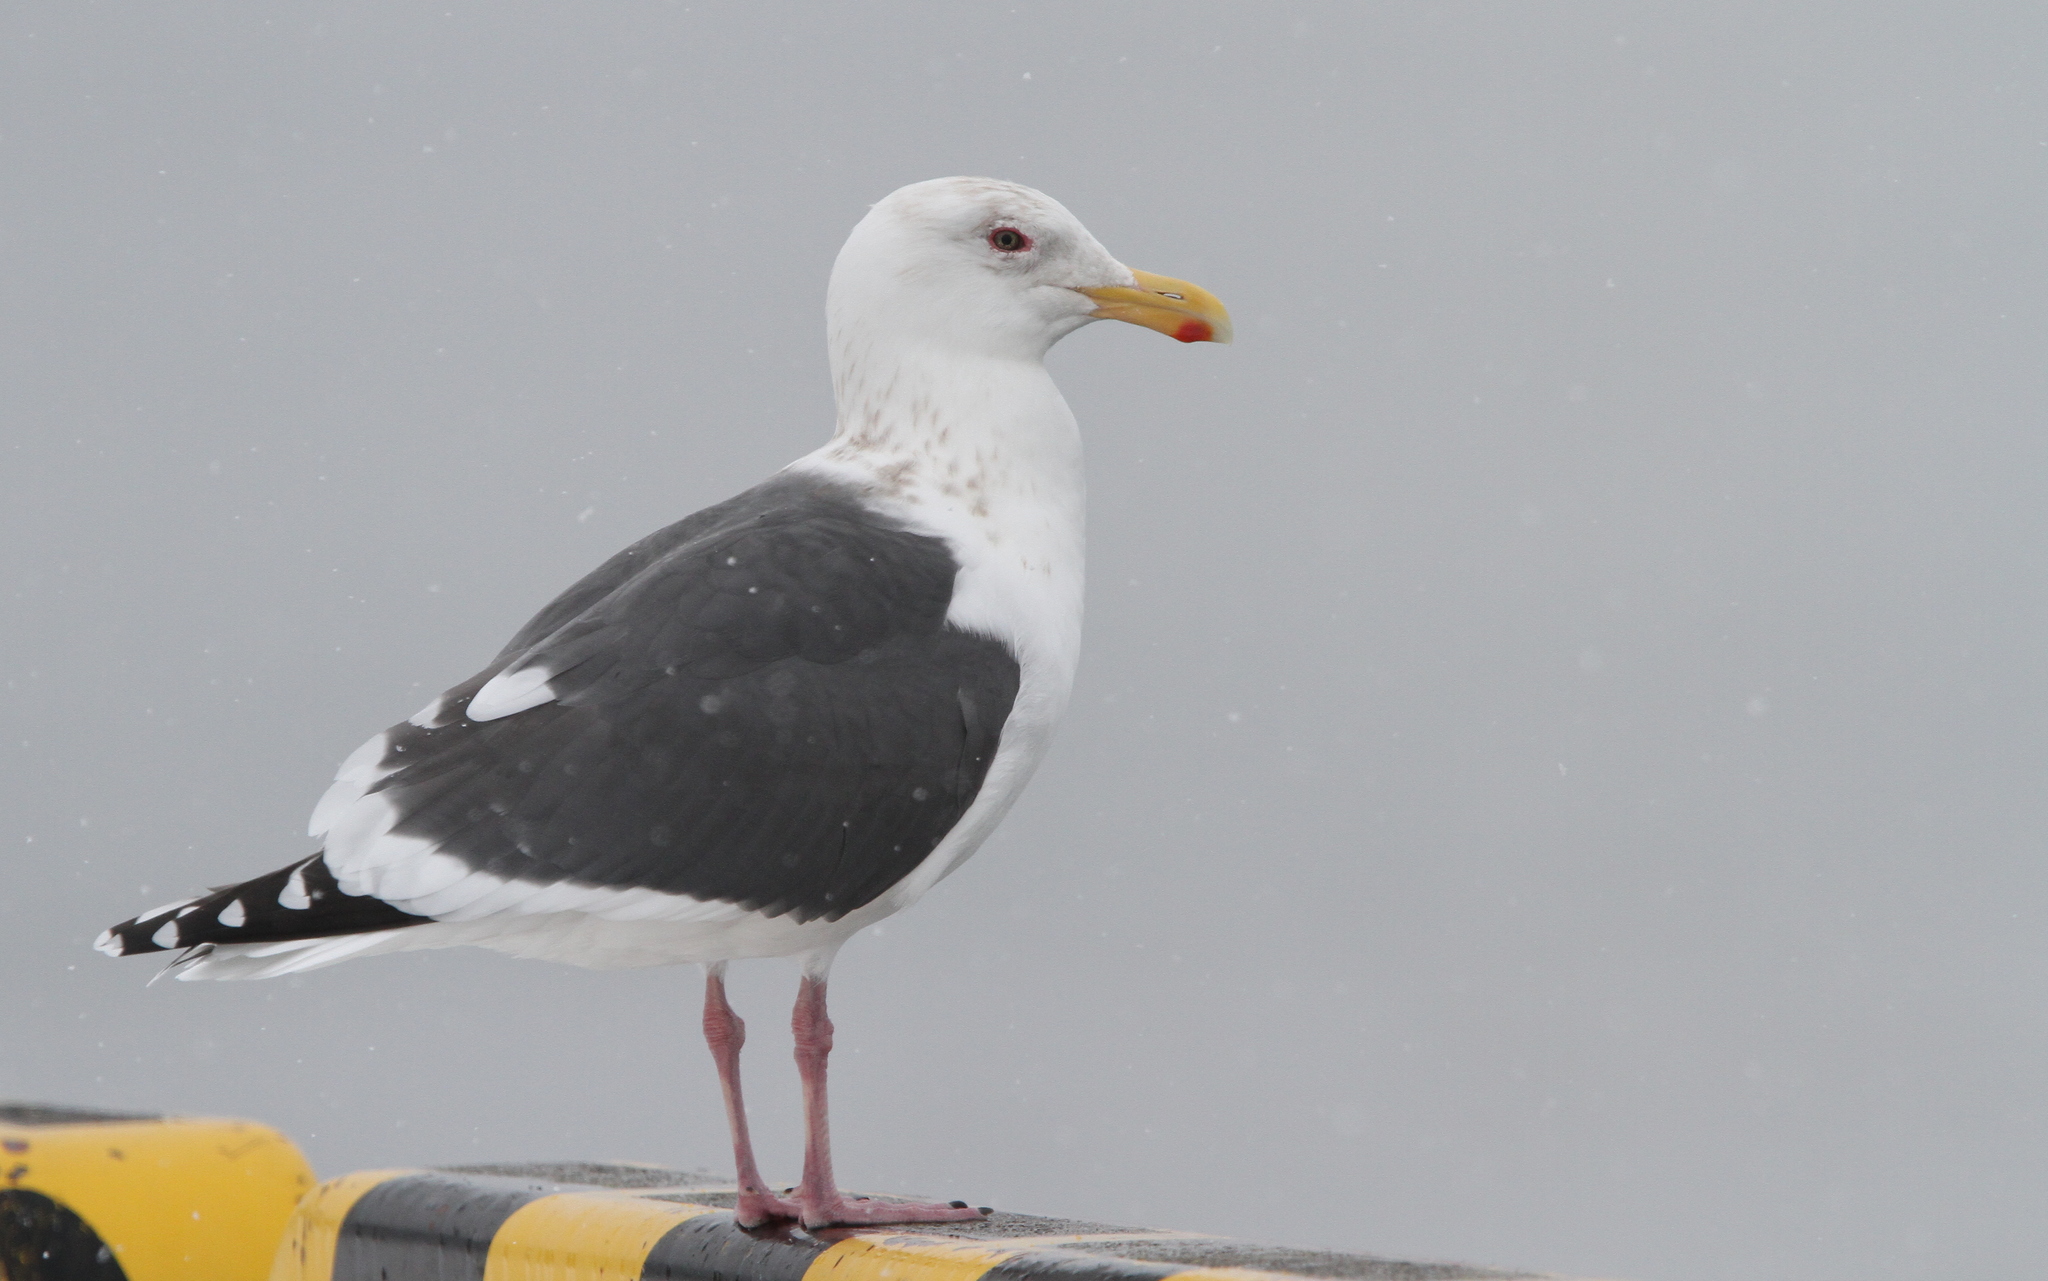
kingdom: Animalia
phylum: Chordata
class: Aves
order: Charadriiformes
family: Laridae
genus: Larus
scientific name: Larus schistisagus
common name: Slaty-backed gull
